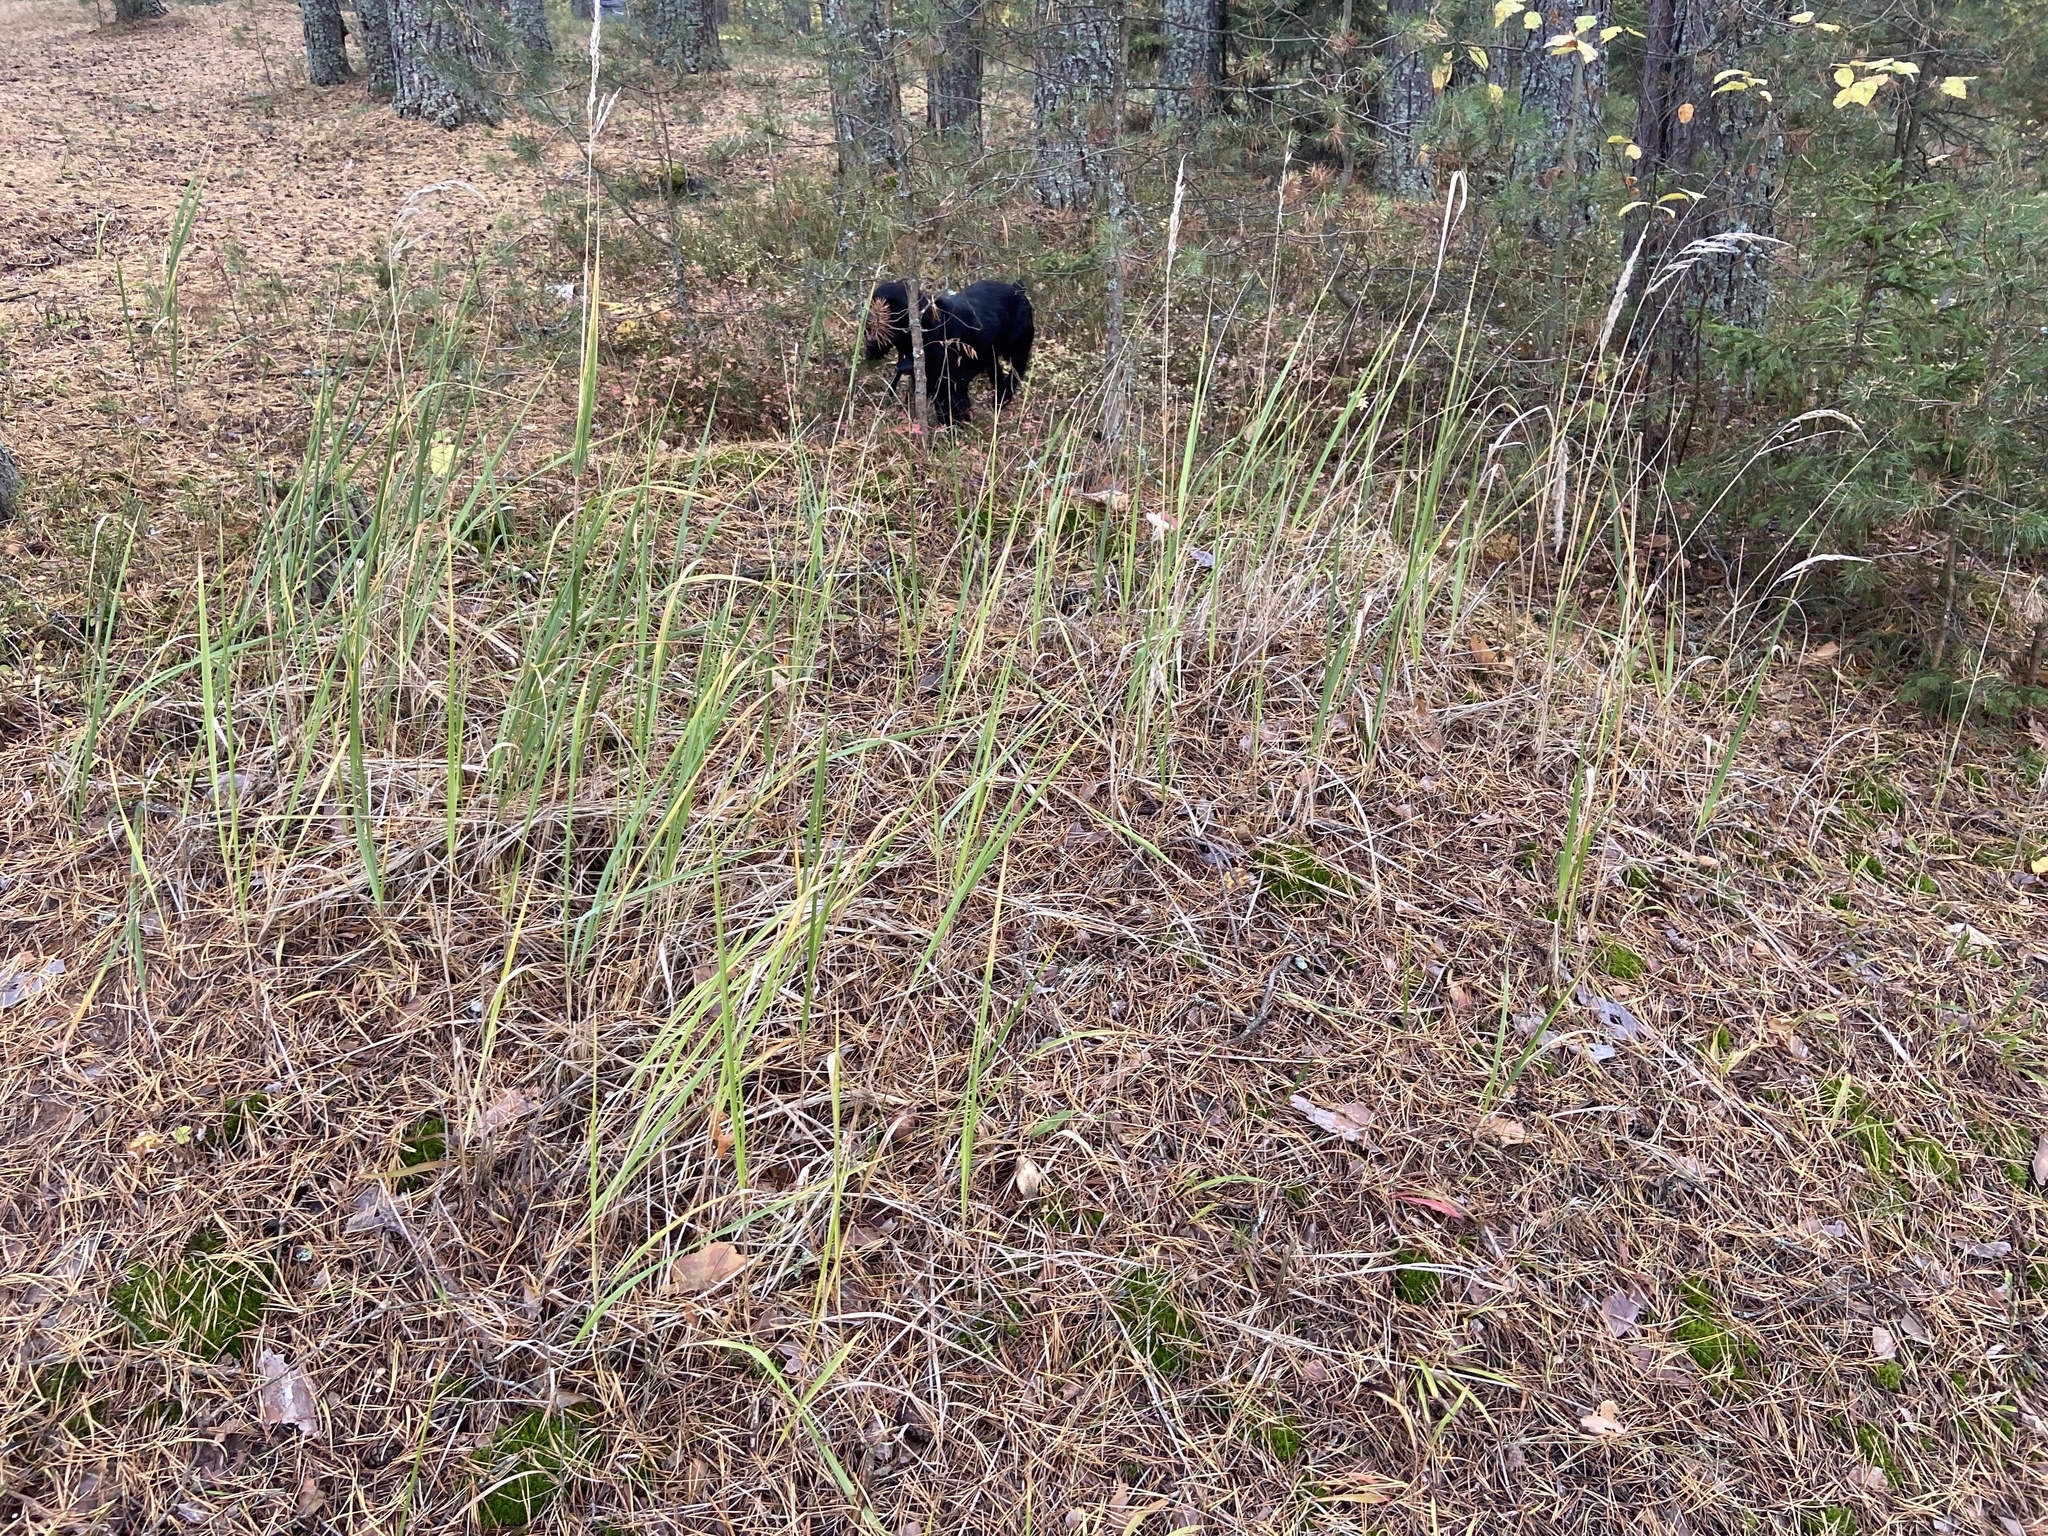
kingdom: Plantae
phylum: Tracheophyta
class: Liliopsida
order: Poales
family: Poaceae
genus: Calamagrostis
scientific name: Calamagrostis epigejos
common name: Wood small-reed
